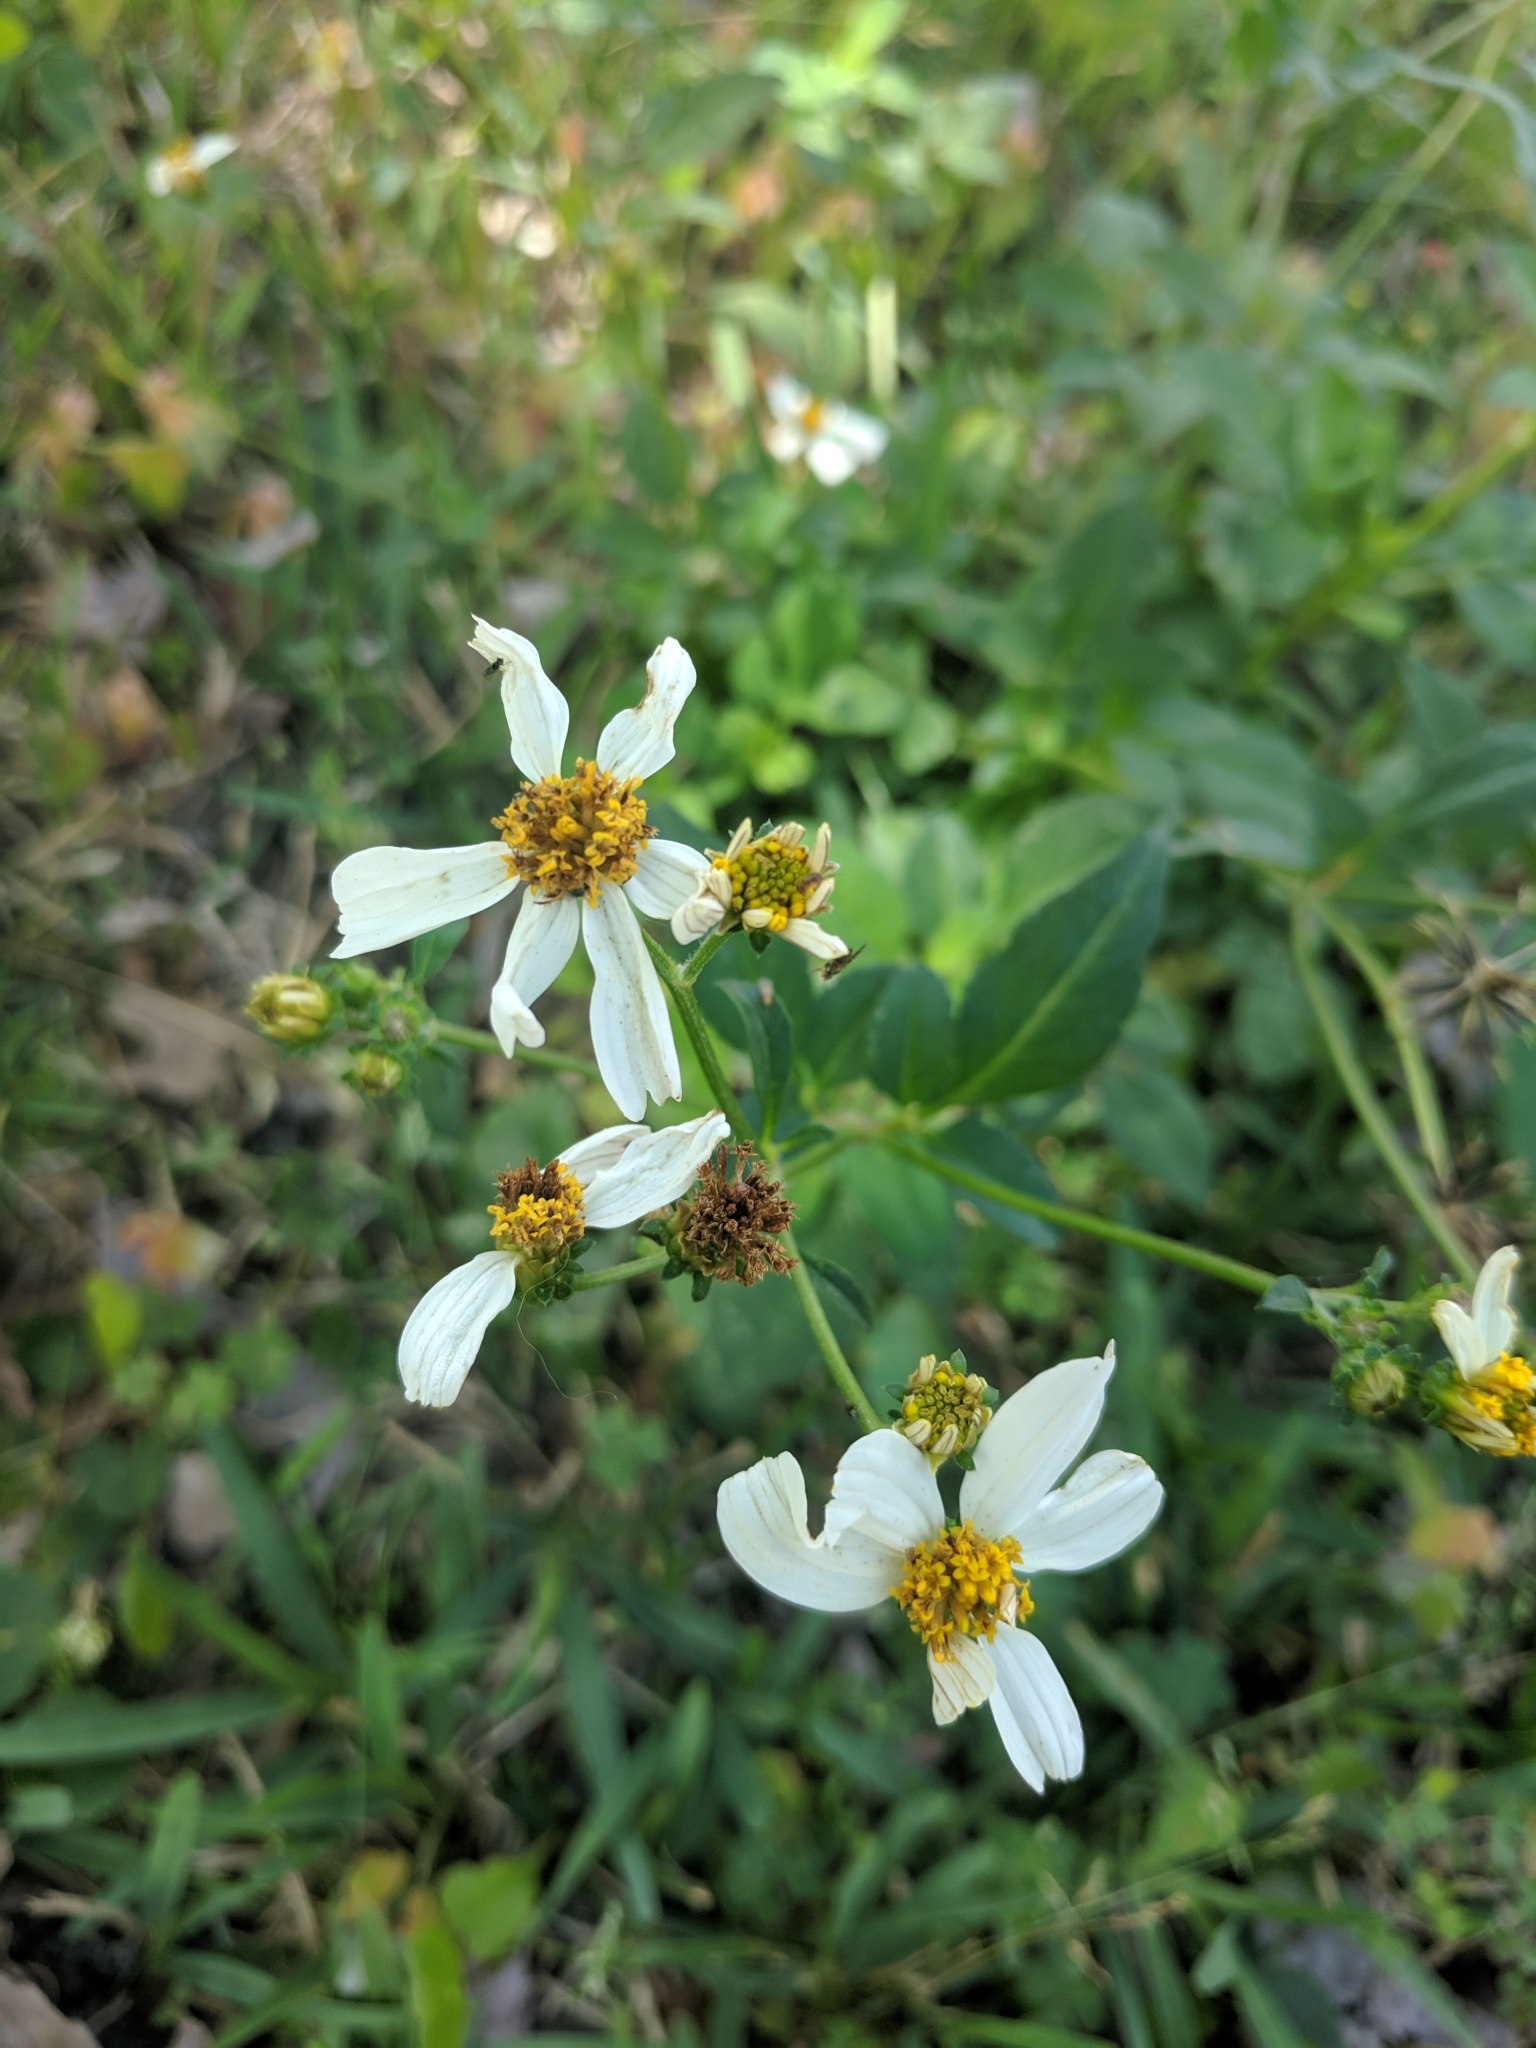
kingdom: Plantae
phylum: Tracheophyta
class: Magnoliopsida
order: Asterales
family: Asteraceae
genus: Bidens
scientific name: Bidens alba
